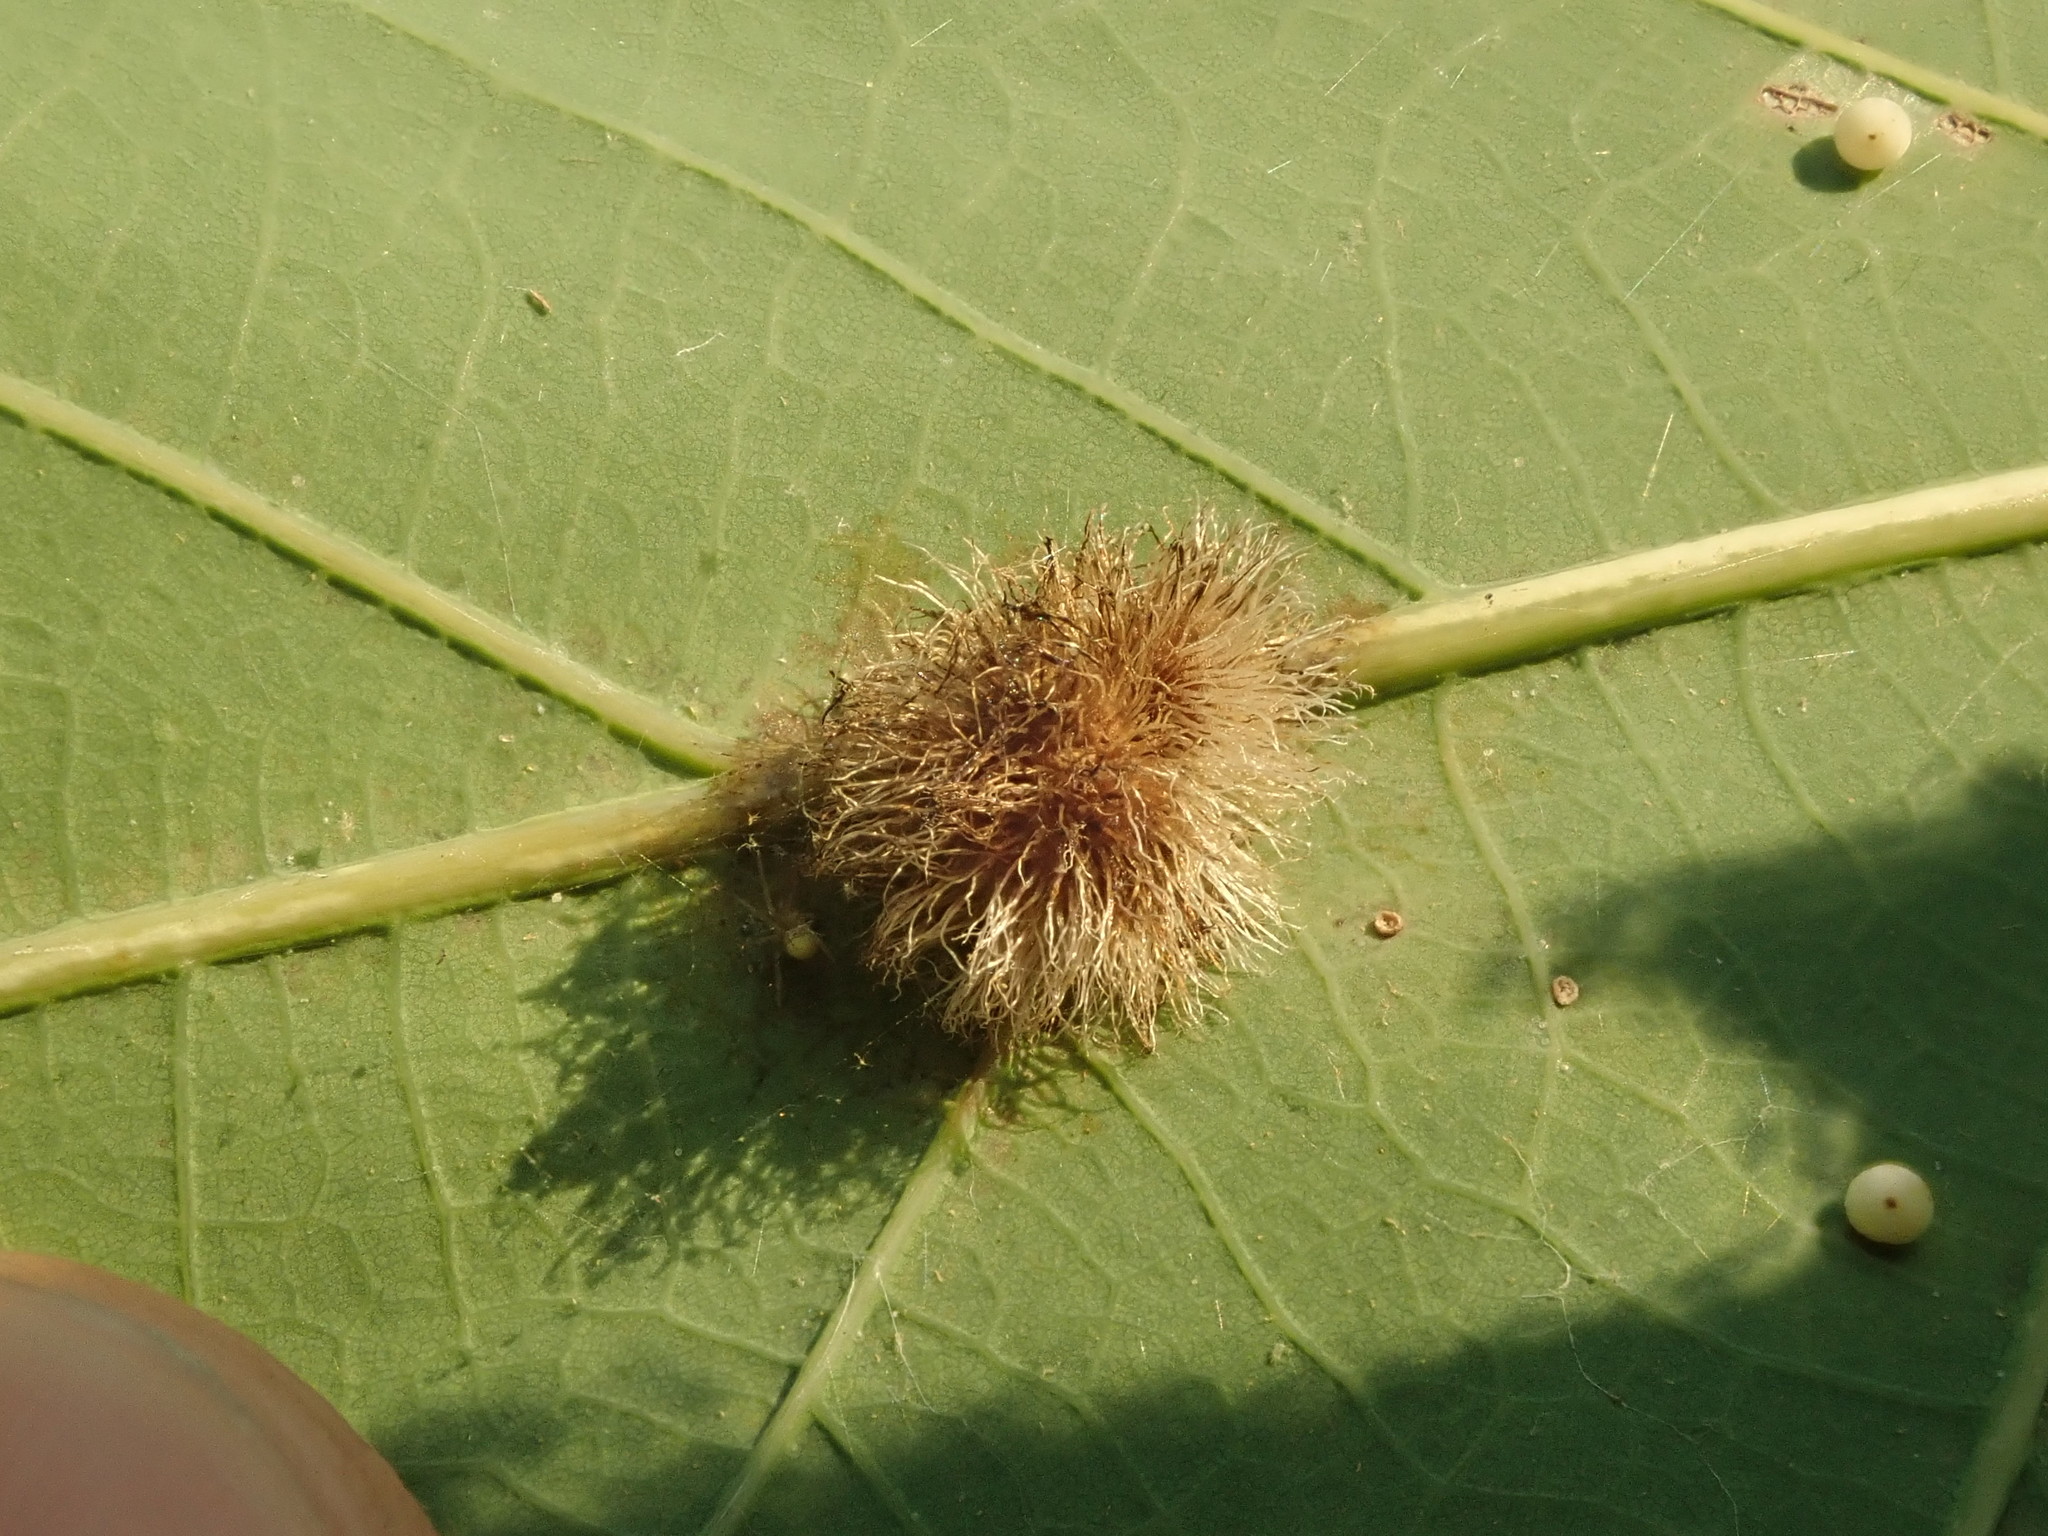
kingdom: Animalia
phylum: Arthropoda
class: Insecta
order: Hymenoptera
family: Cynipidae
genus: Acraspis
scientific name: Acraspis erinacei
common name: Hedgehog gall wasp
